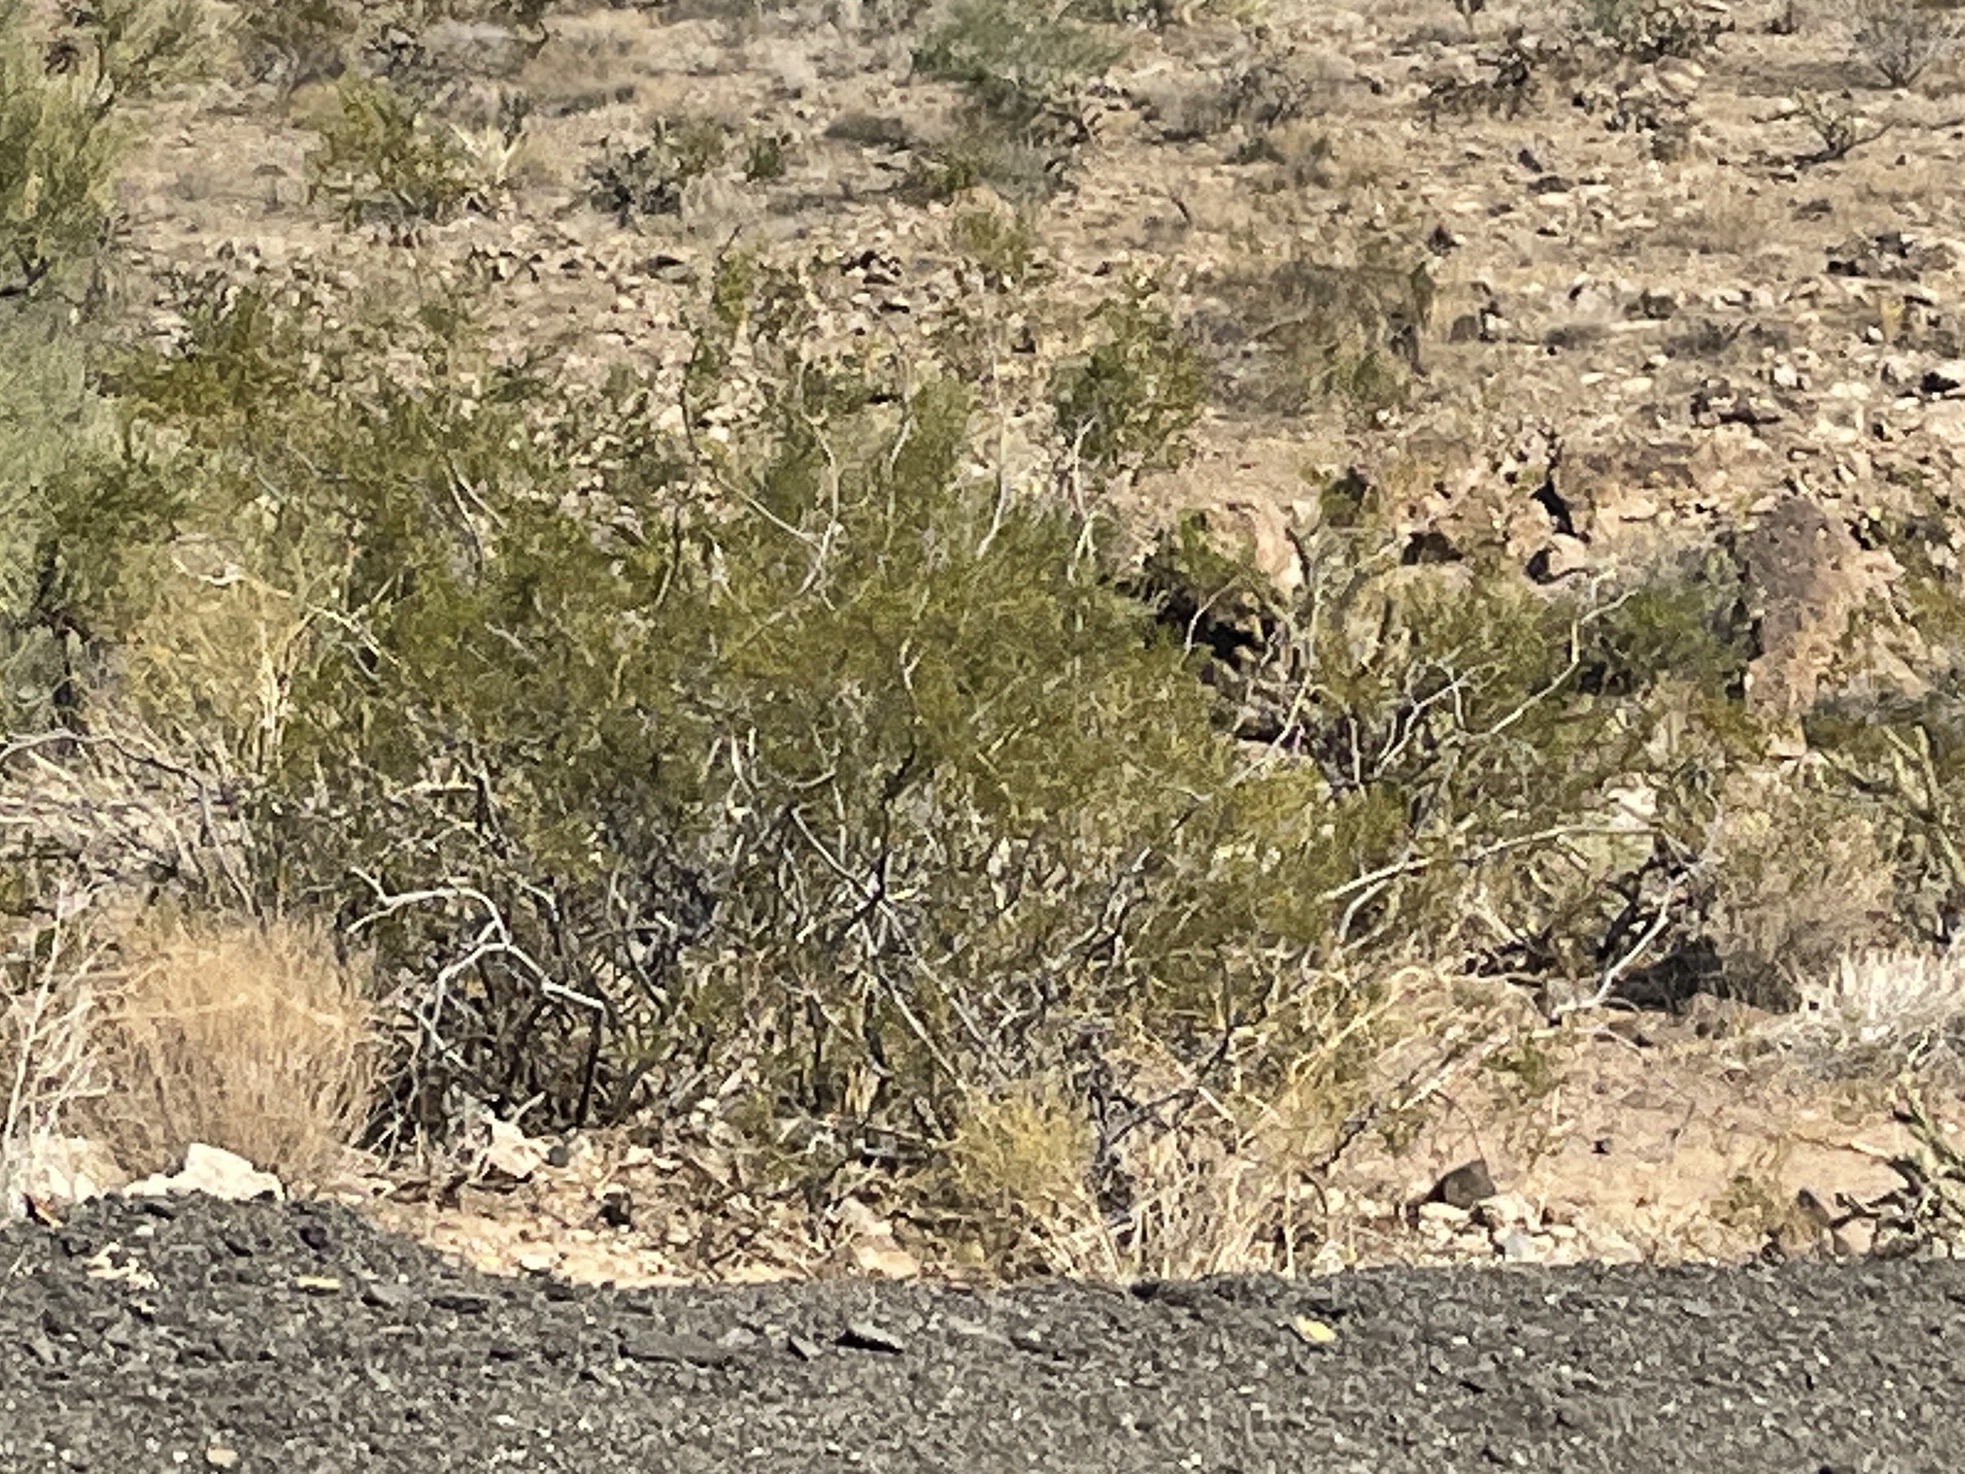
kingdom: Plantae
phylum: Tracheophyta
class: Magnoliopsida
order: Zygophyllales
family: Zygophyllaceae
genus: Larrea
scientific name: Larrea tridentata
